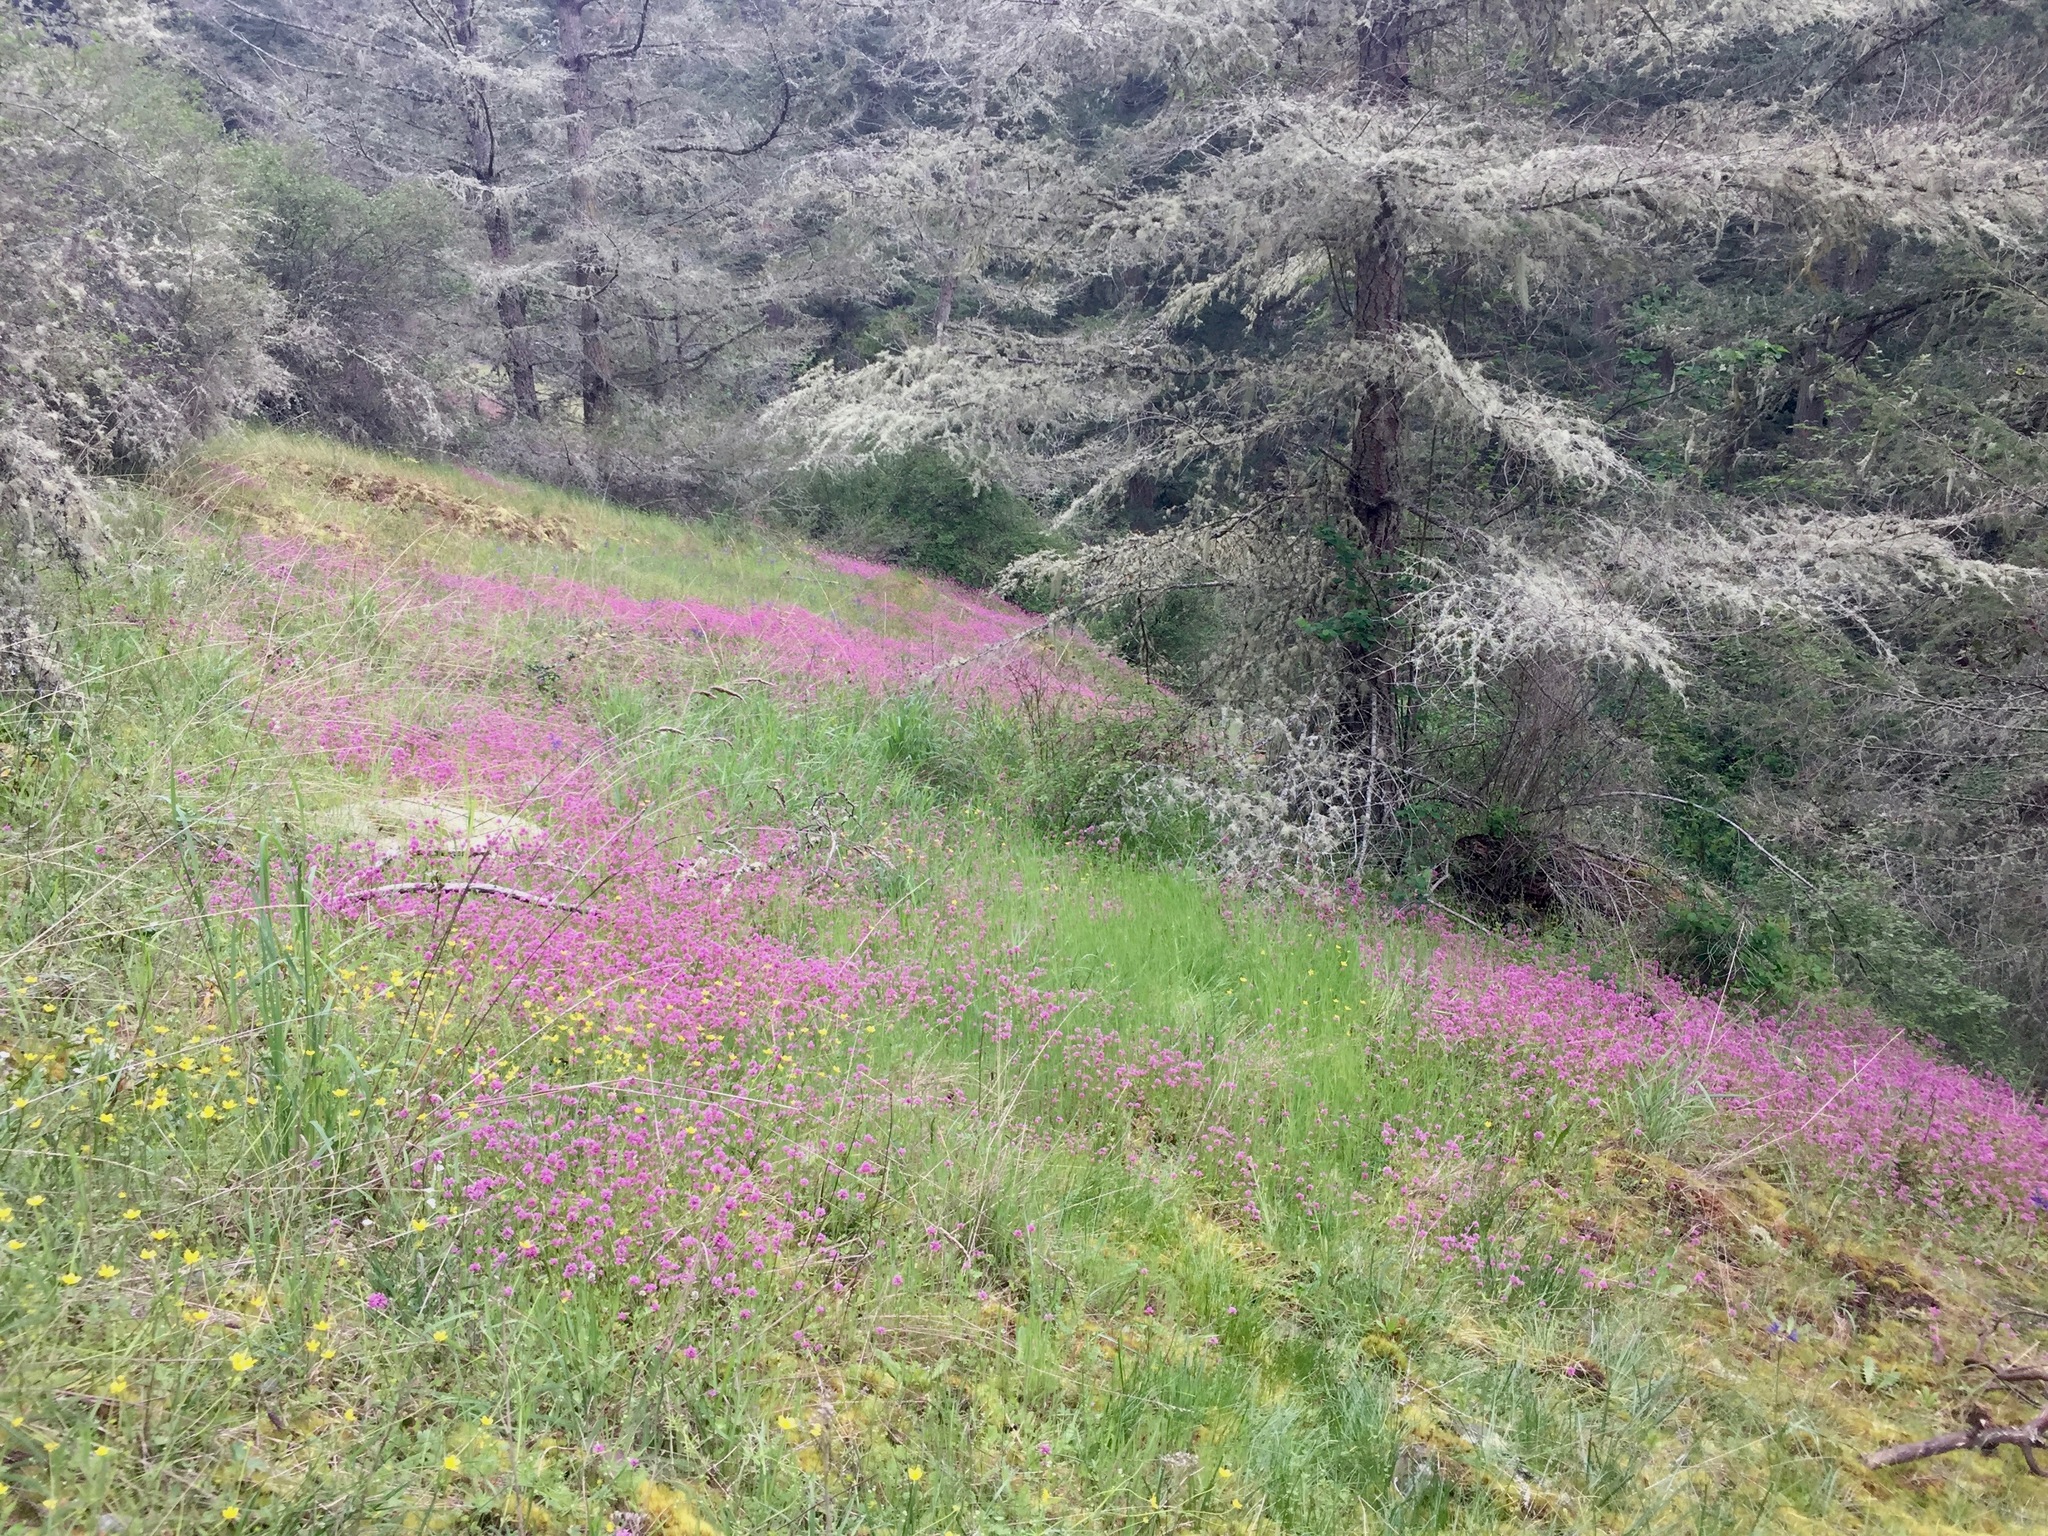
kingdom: Plantae
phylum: Tracheophyta
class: Magnoliopsida
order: Dipsacales
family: Caprifoliaceae
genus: Plectritis
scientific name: Plectritis congesta
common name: Pink plectritis
